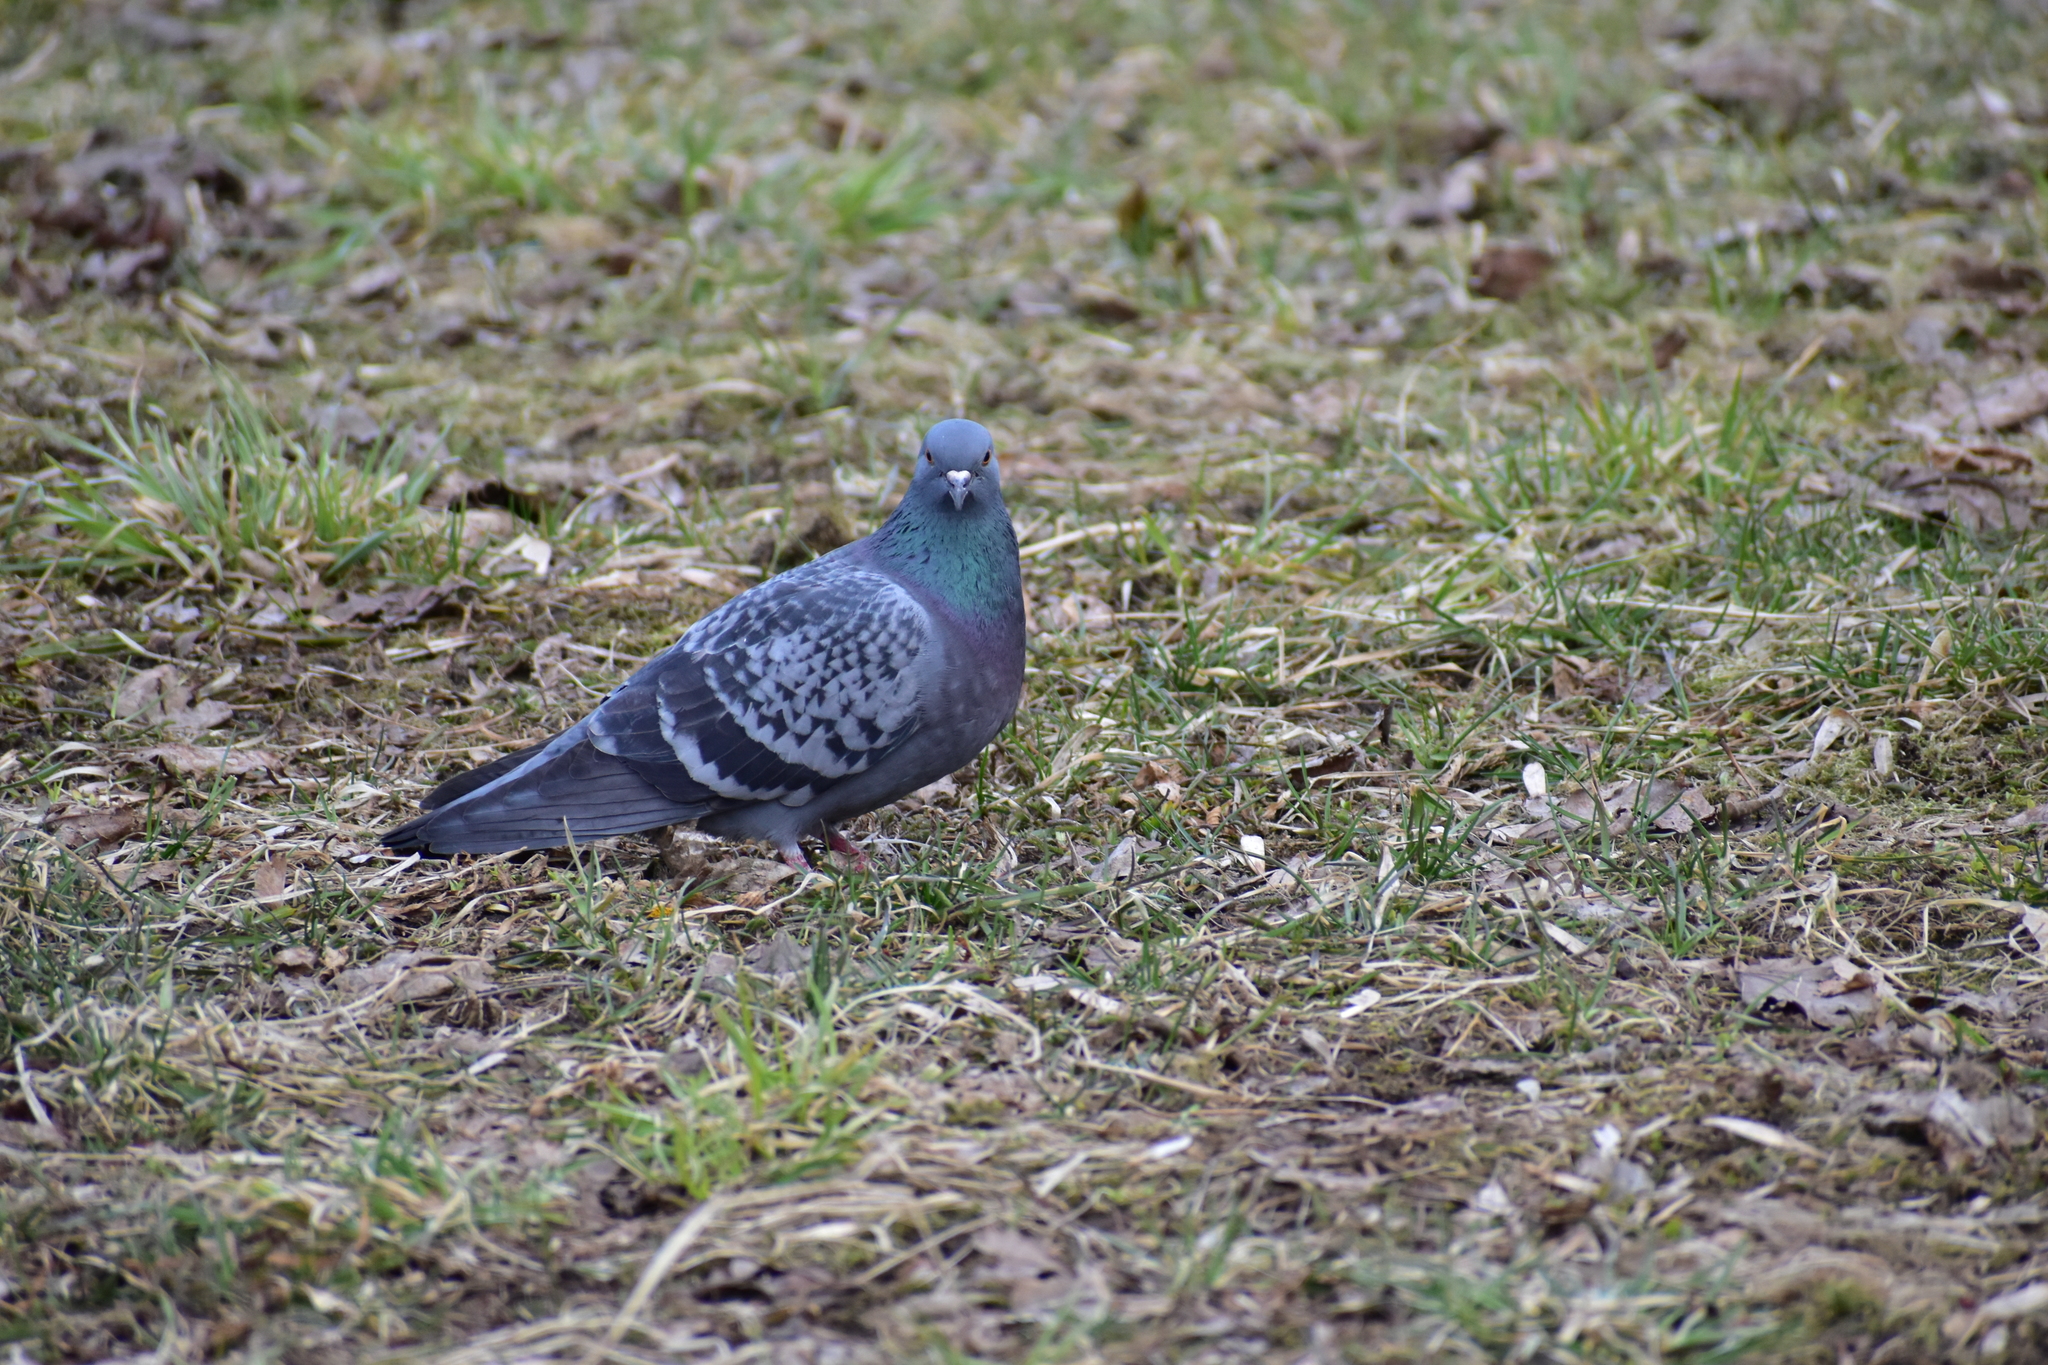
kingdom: Animalia
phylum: Chordata
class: Aves
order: Columbiformes
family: Columbidae
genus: Columba
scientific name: Columba livia
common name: Rock pigeon
